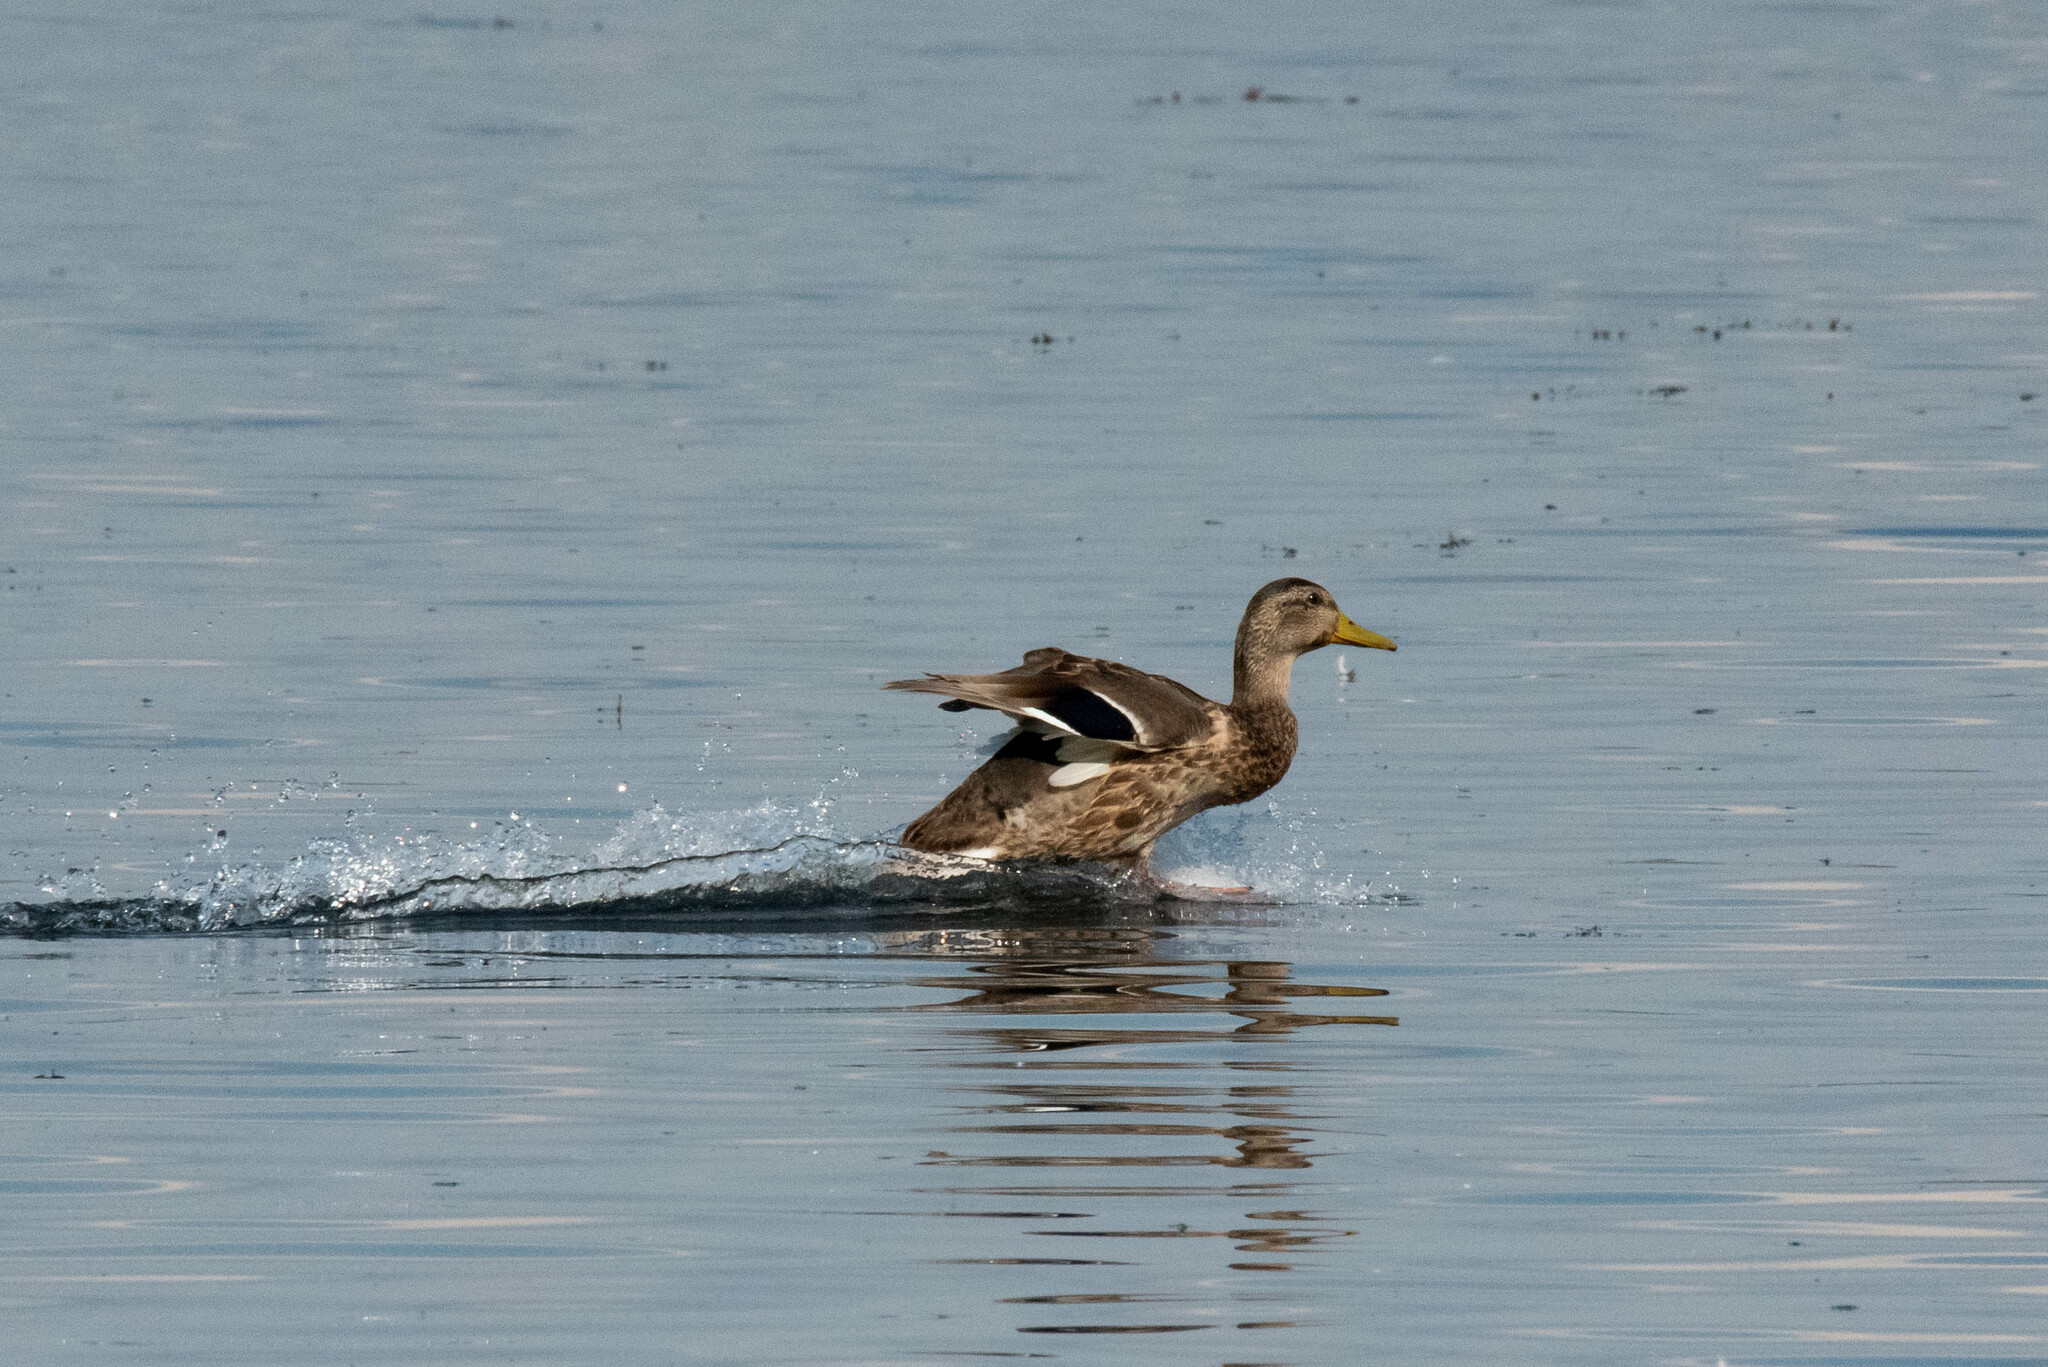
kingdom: Animalia
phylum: Chordata
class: Aves
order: Anseriformes
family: Anatidae
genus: Anas
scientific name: Anas platyrhynchos
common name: Mallard
